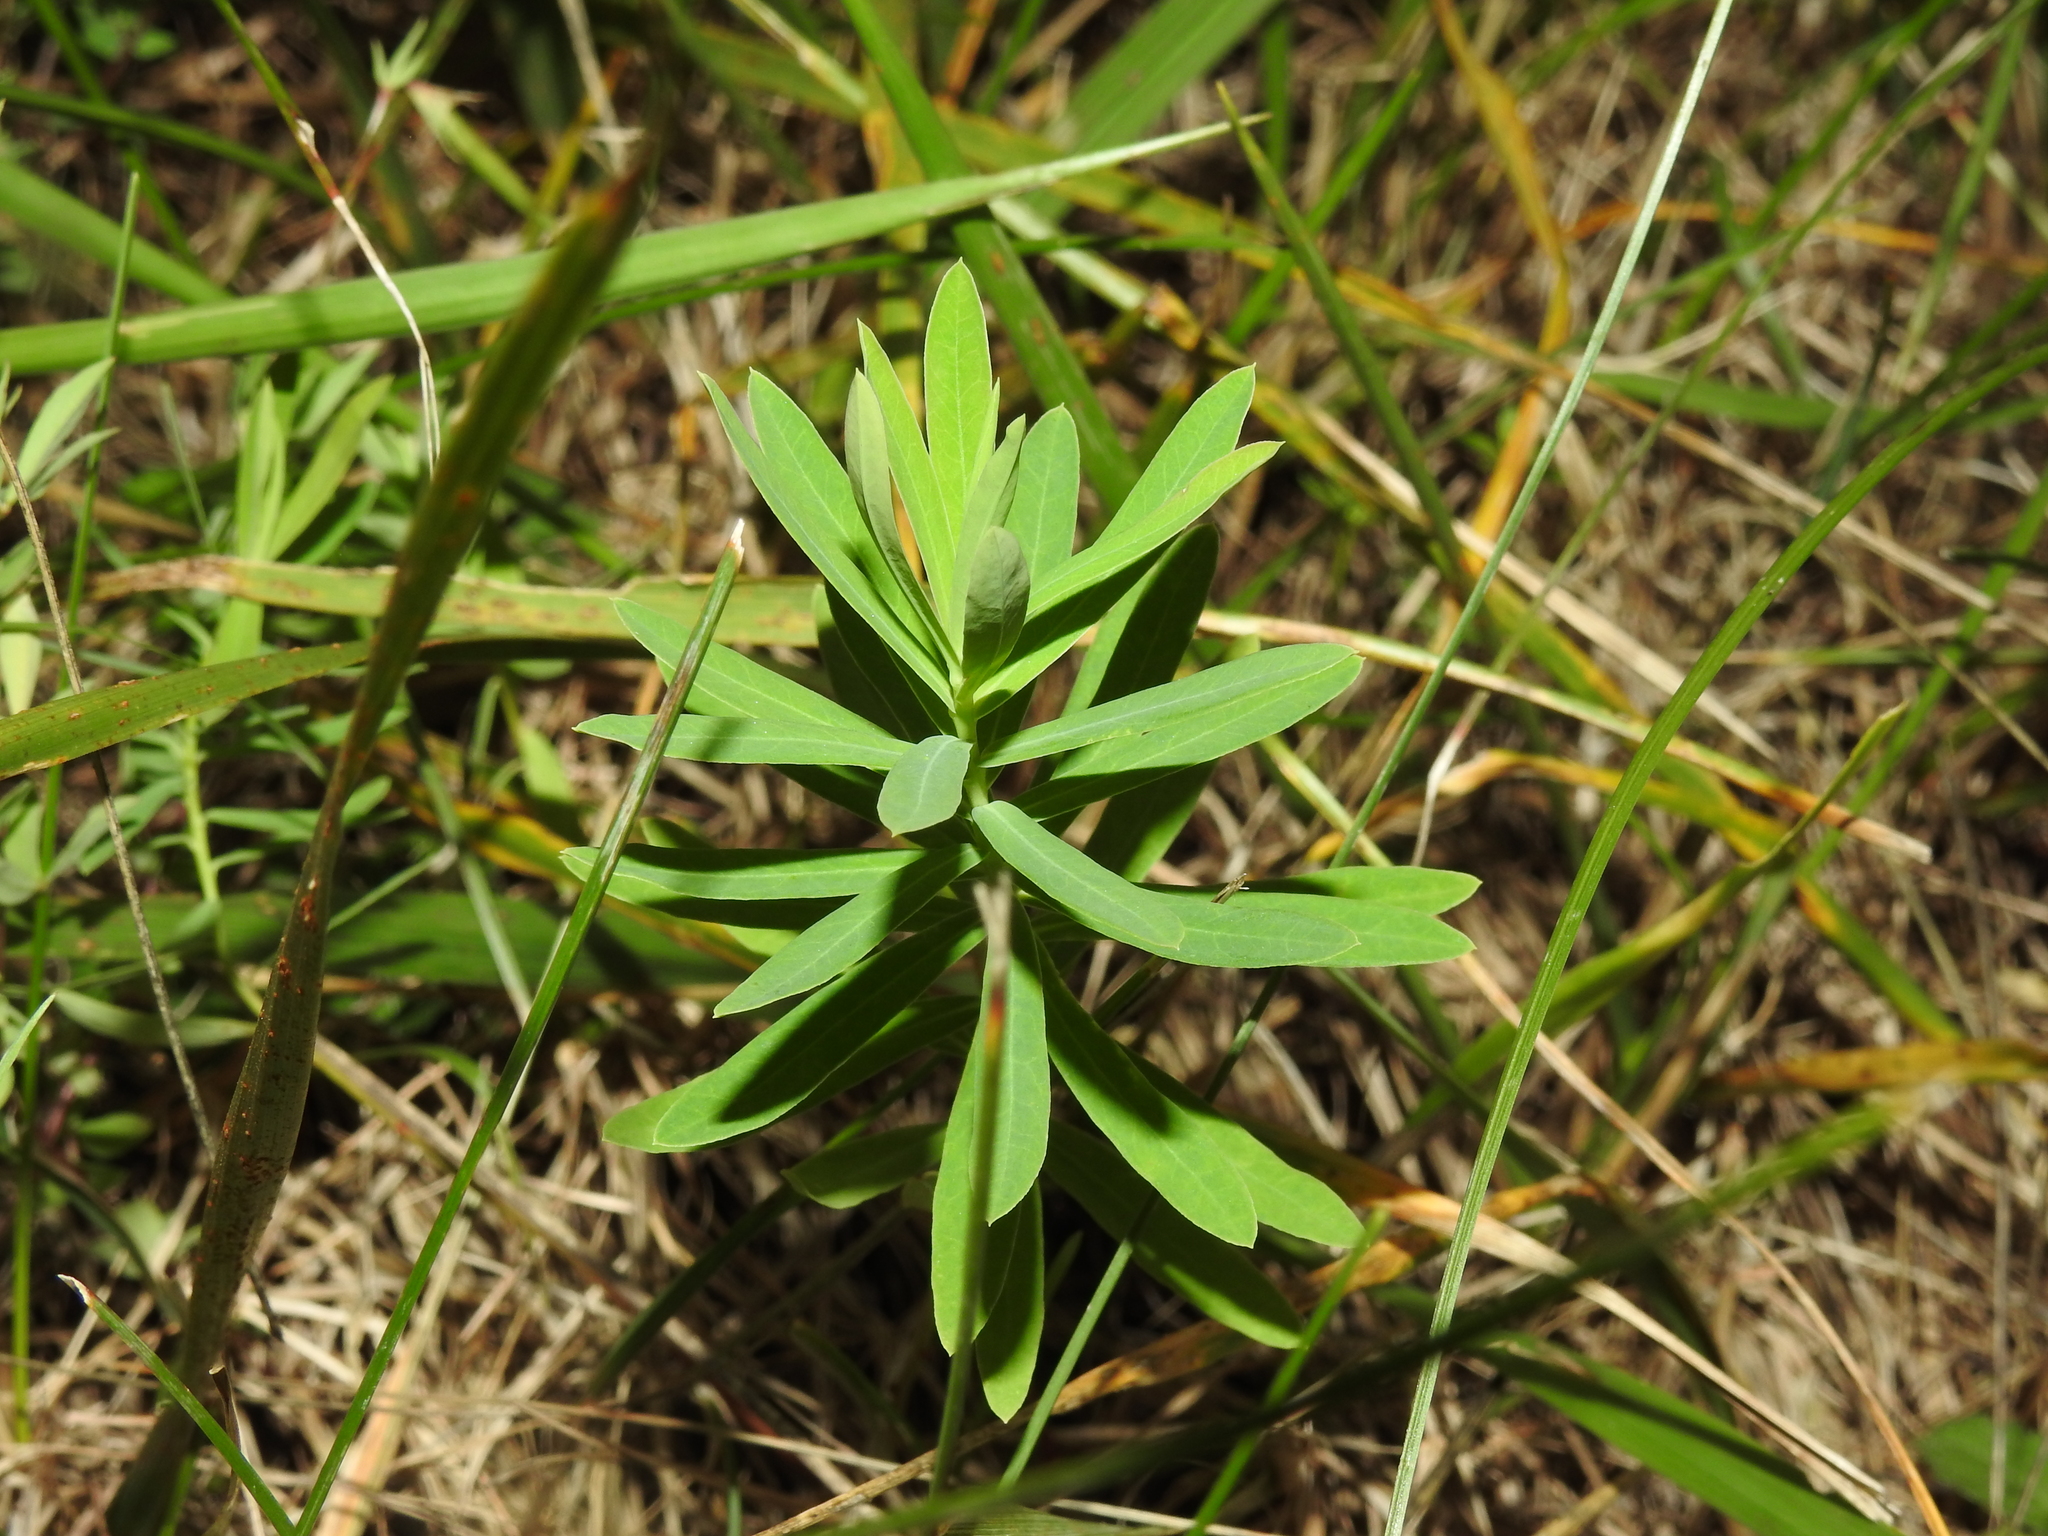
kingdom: Plantae
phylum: Tracheophyta
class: Magnoliopsida
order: Malpighiales
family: Euphorbiaceae
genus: Euphorbia
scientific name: Euphorbia esula
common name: Leafy spurge
